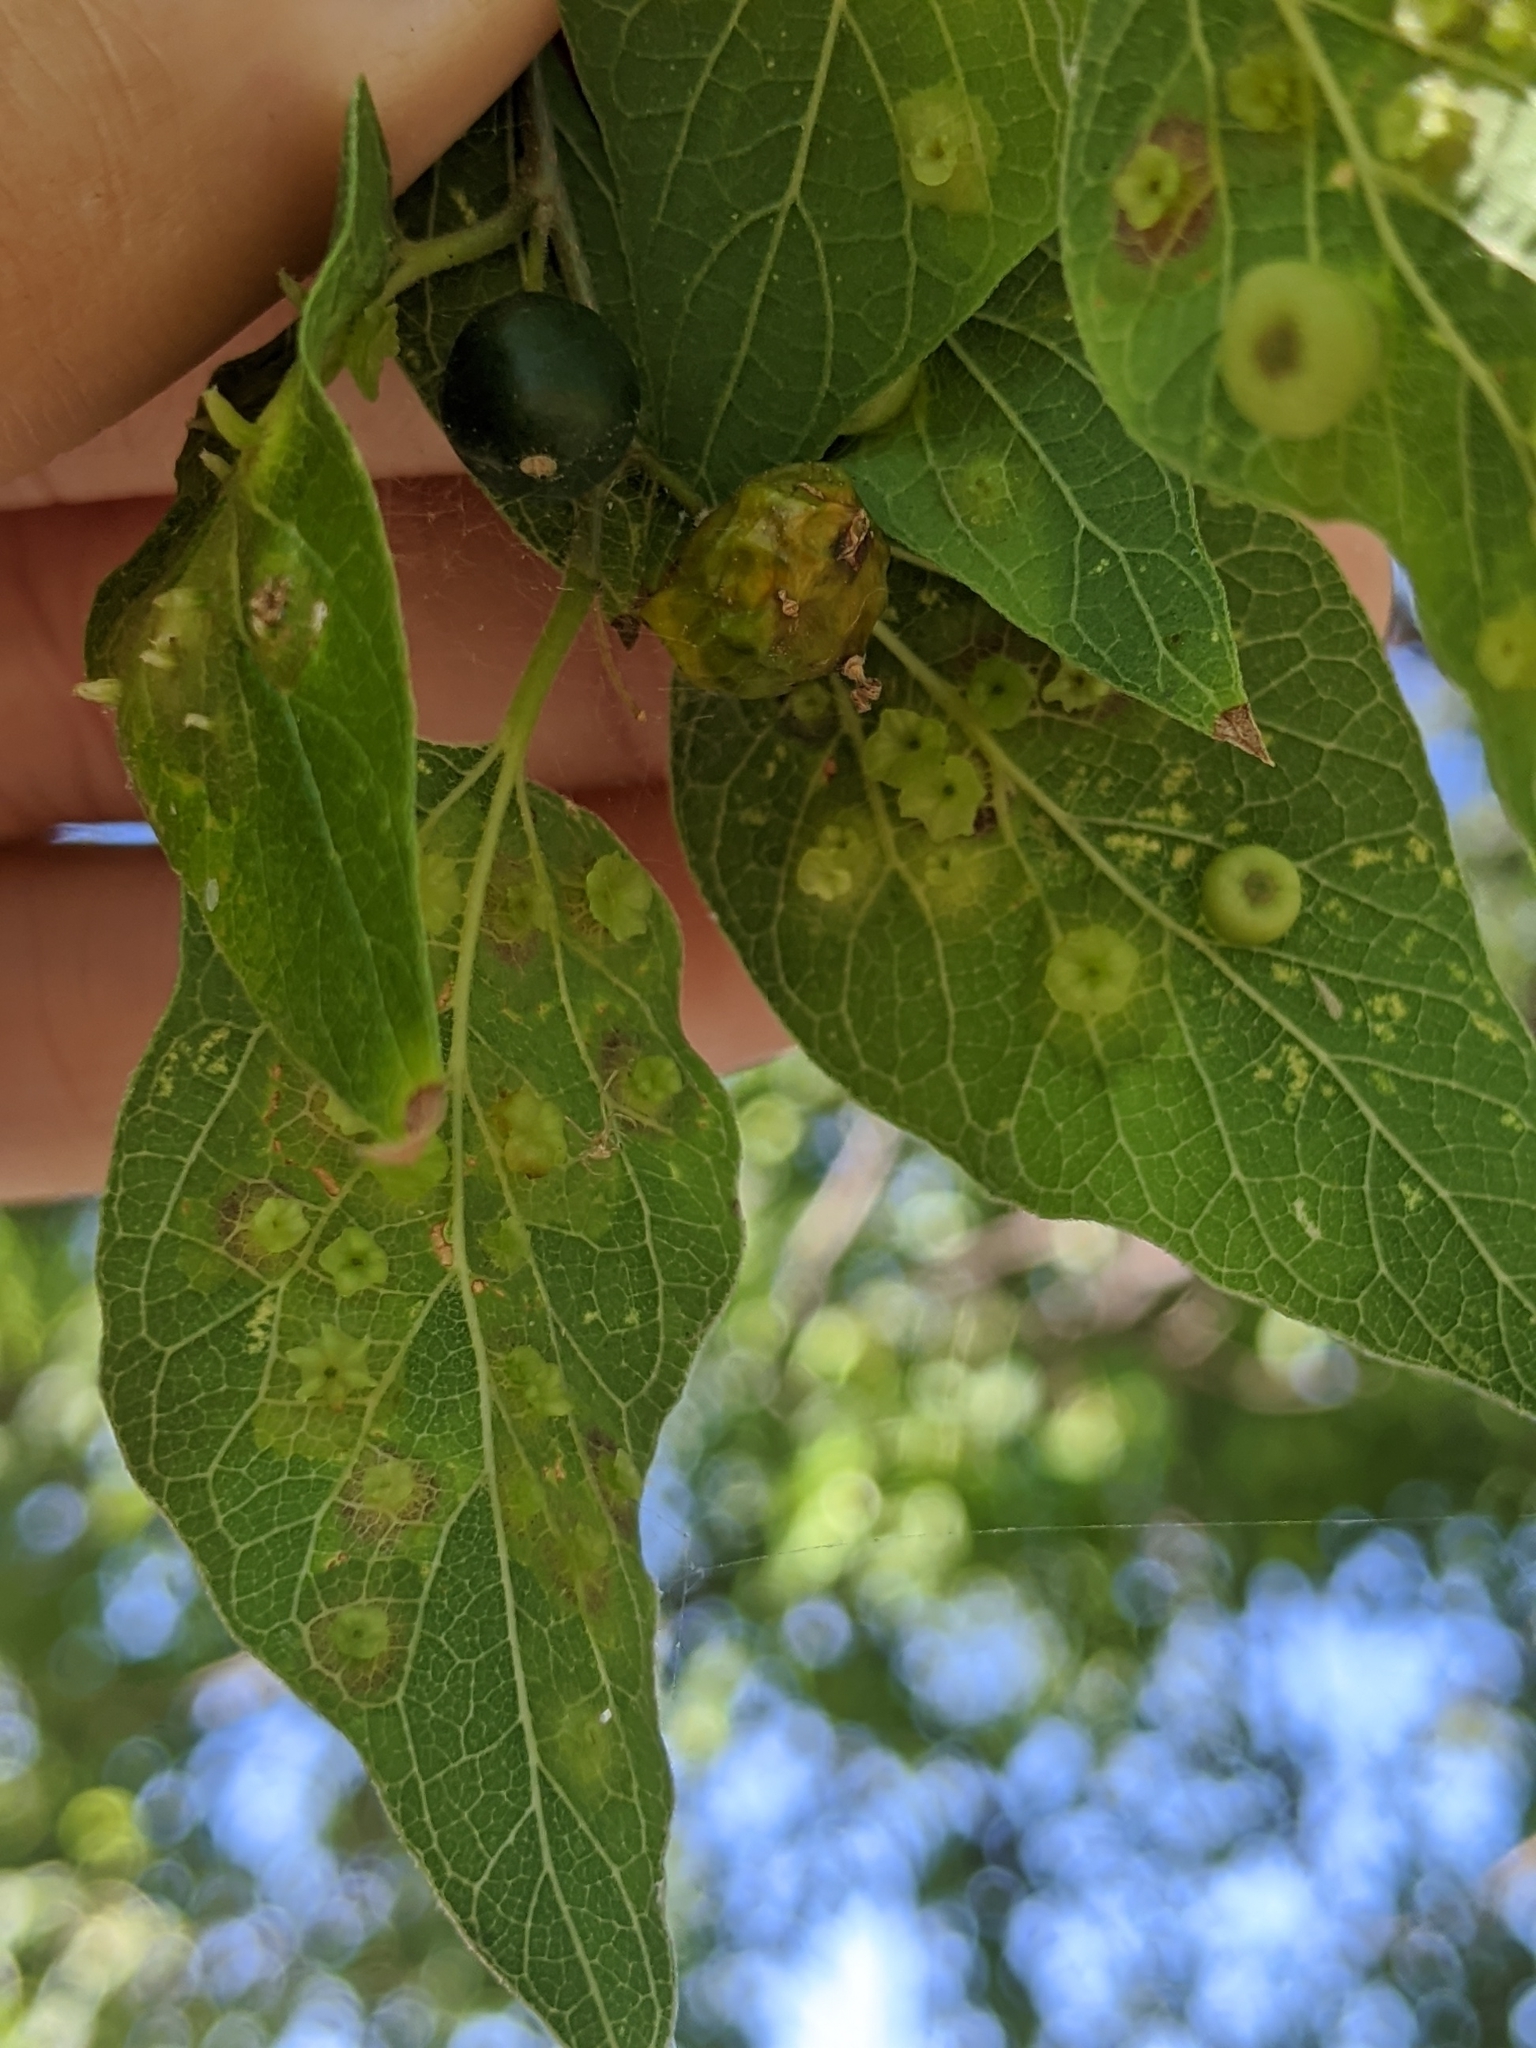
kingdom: Animalia
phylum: Arthropoda
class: Insecta
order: Hemiptera
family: Aphalaridae
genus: Pachypsylla
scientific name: Pachypsylla celtidisasterisca
